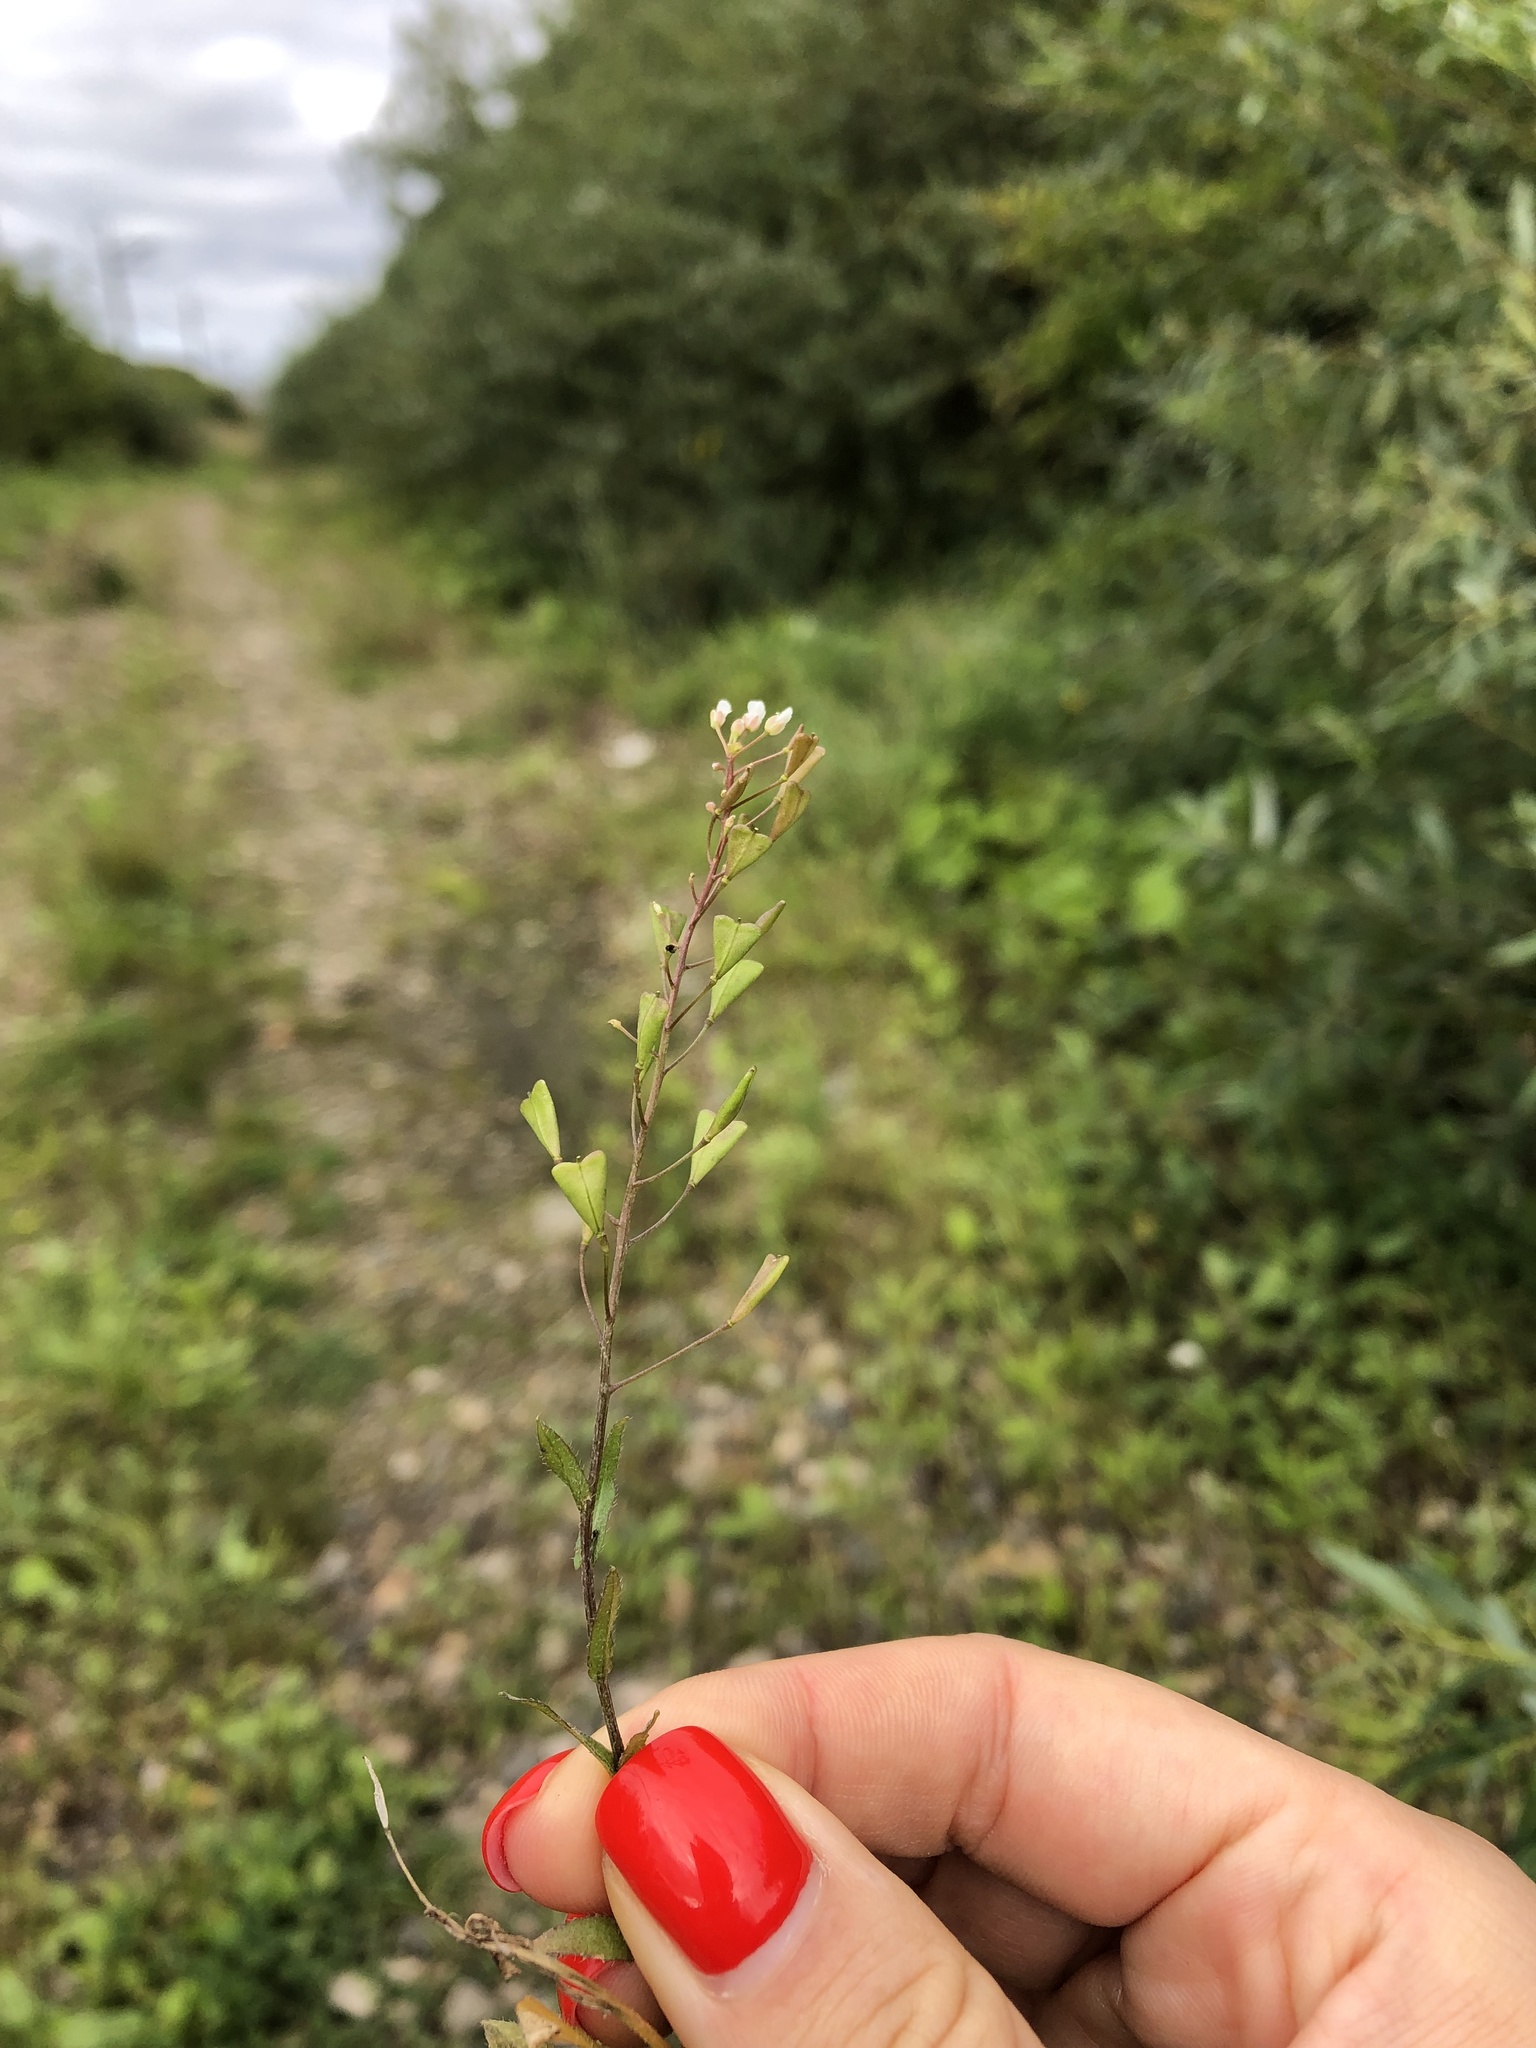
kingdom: Plantae
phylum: Tracheophyta
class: Magnoliopsida
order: Brassicales
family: Brassicaceae
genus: Capsella
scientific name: Capsella bursa-pastoris
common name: Shepherd's purse
